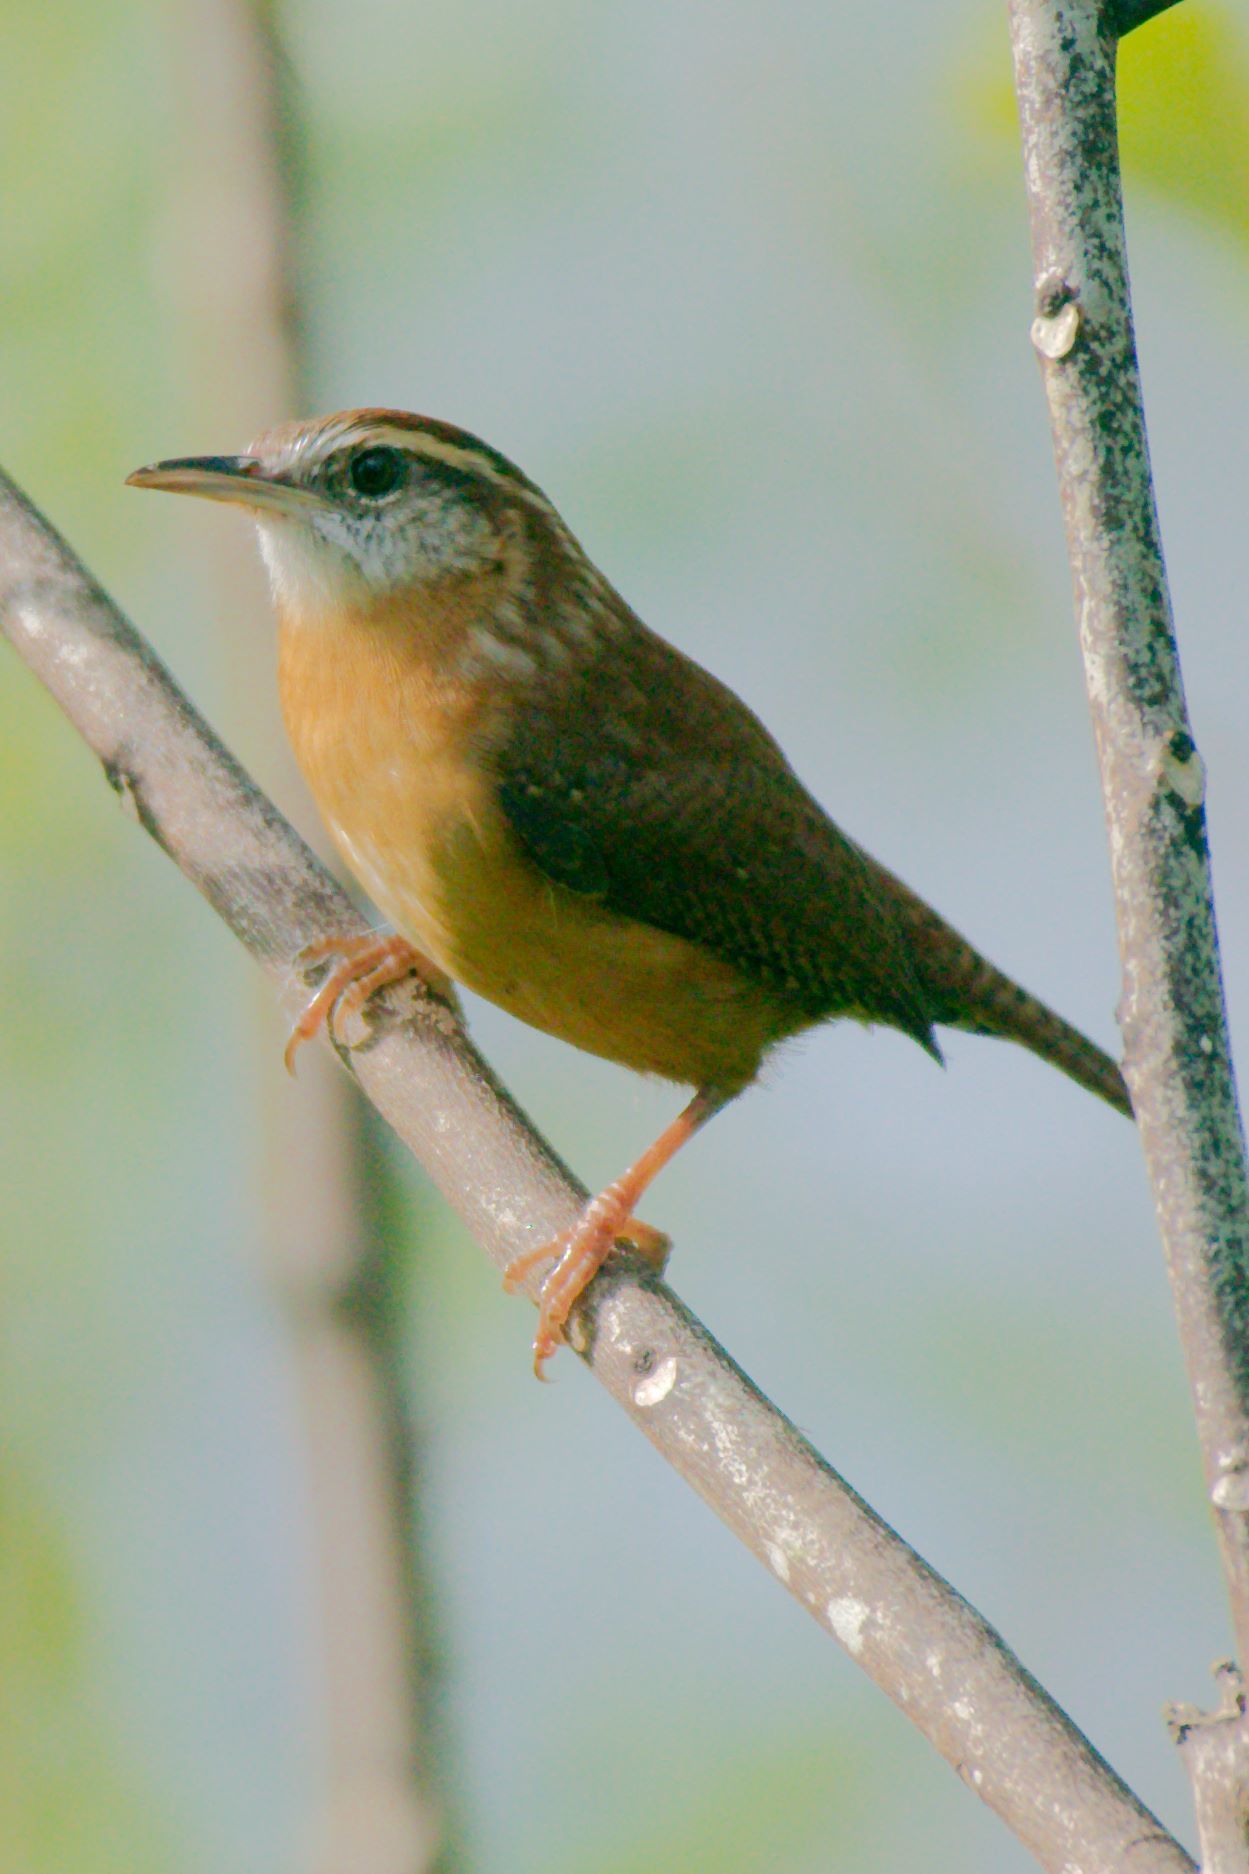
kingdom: Animalia
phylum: Chordata
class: Aves
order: Passeriformes
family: Troglodytidae
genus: Thryothorus
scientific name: Thryothorus ludovicianus
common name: Carolina wren
